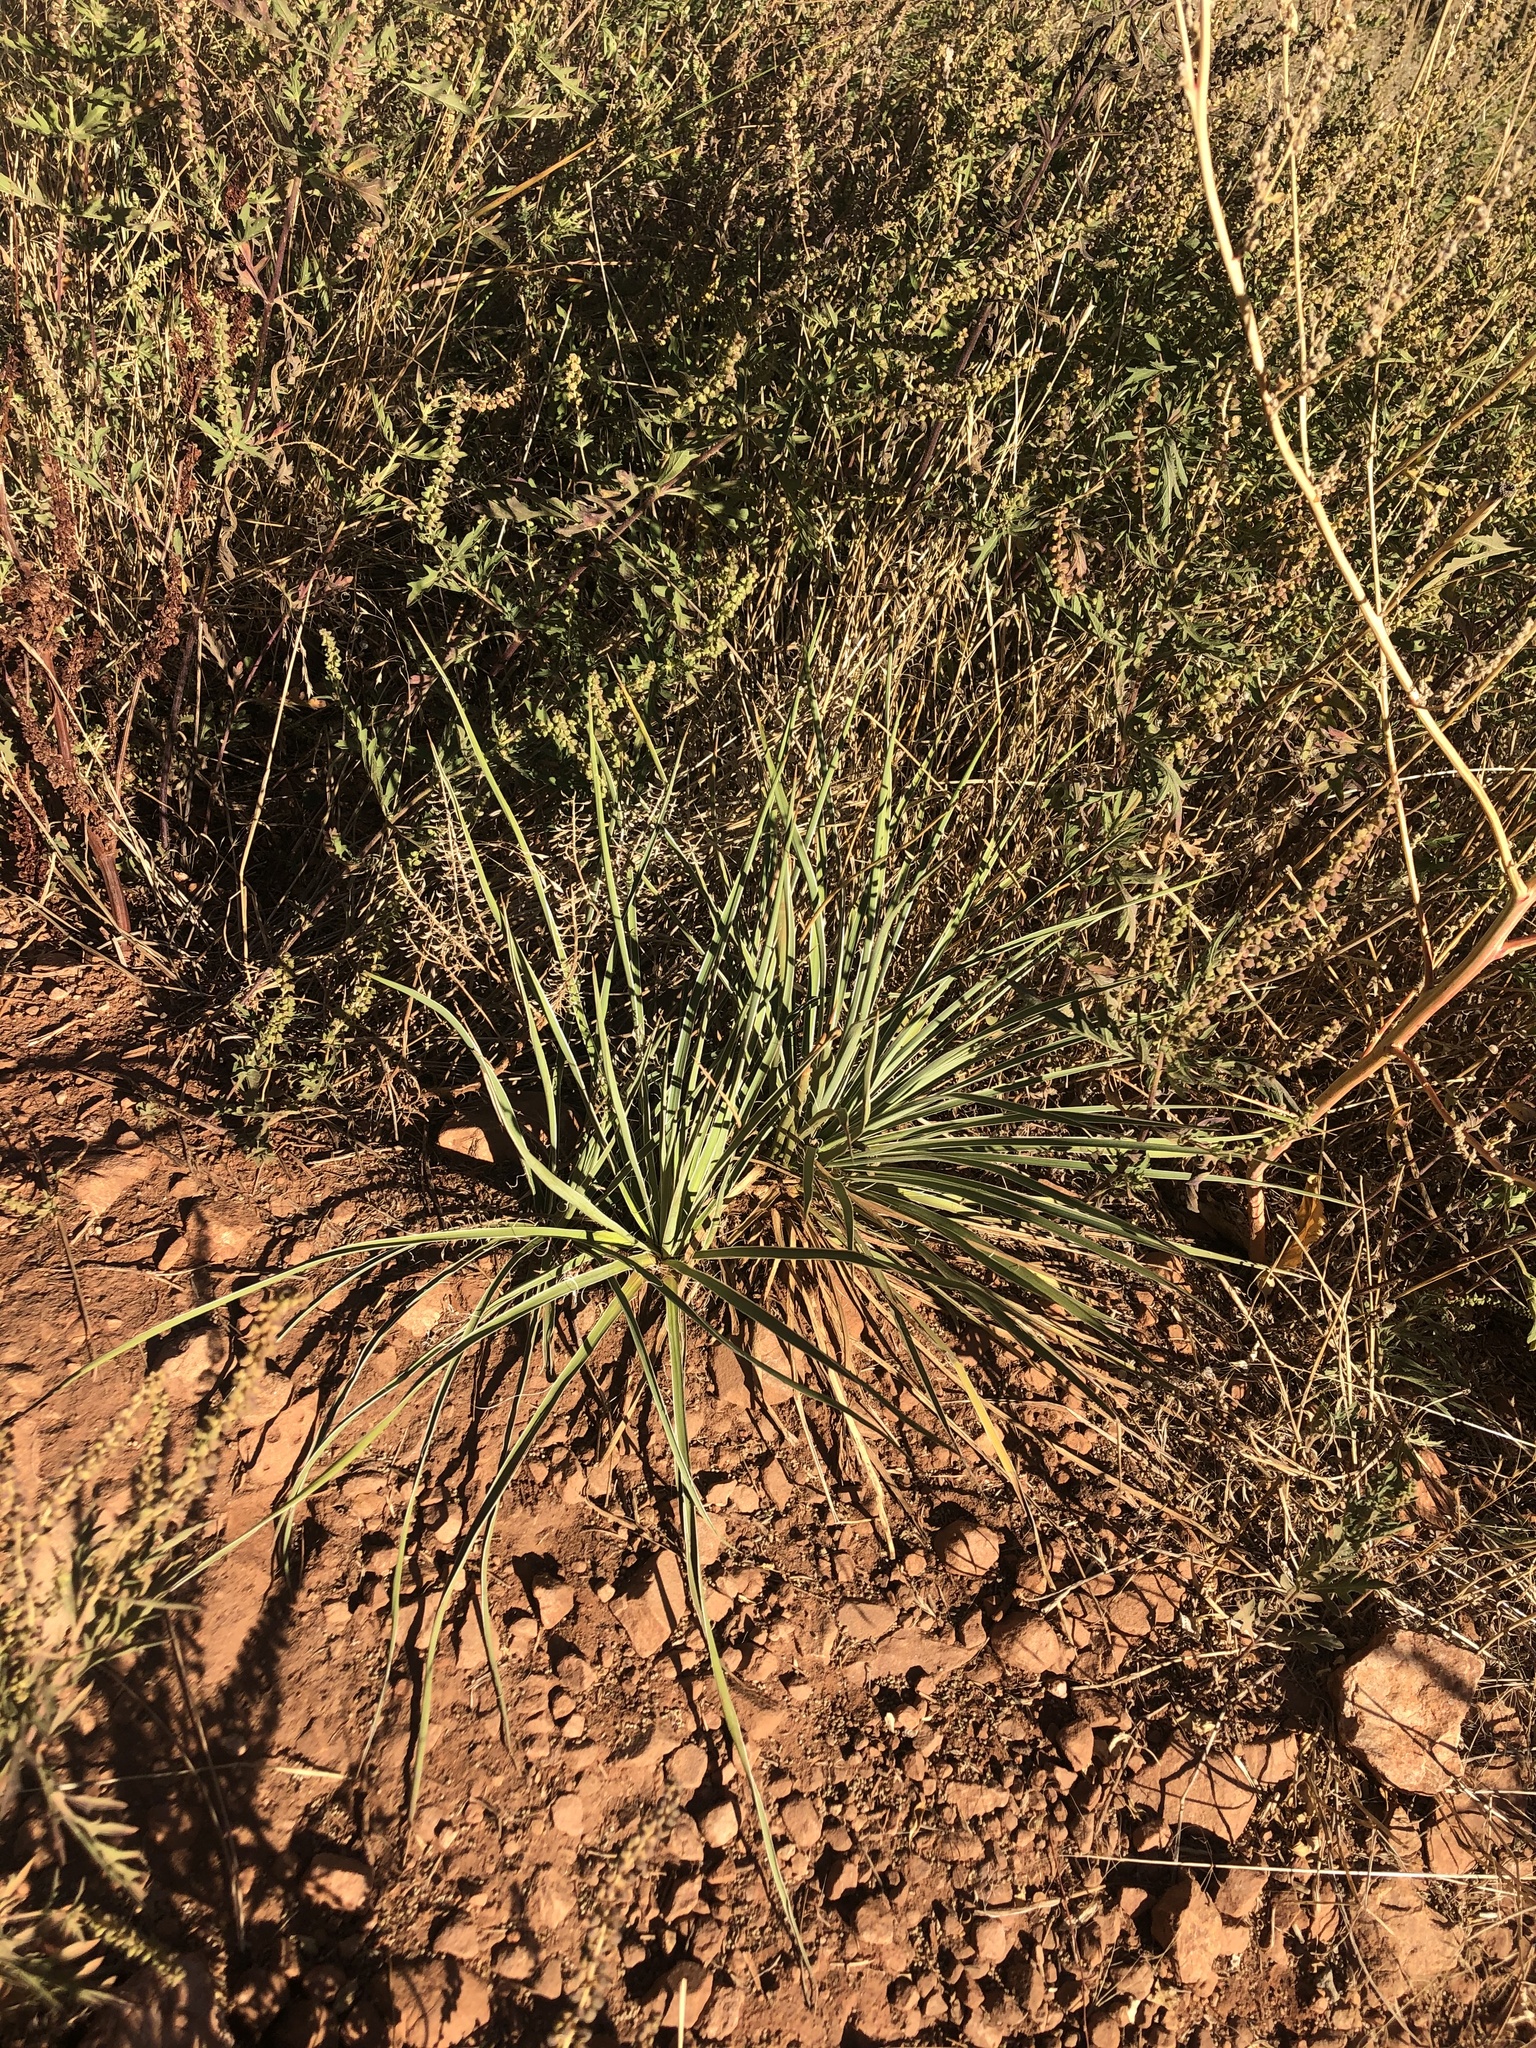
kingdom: Plantae
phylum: Tracheophyta
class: Liliopsida
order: Asparagales
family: Asparagaceae
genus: Yucca
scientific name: Yucca glauca
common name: Great plains yucca
